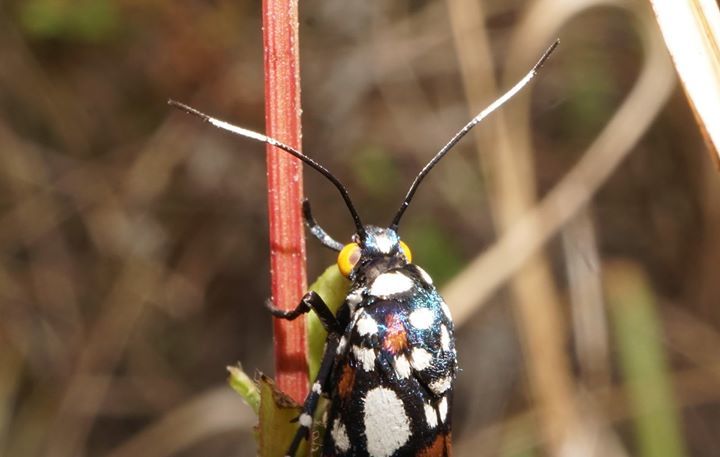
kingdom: Animalia
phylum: Arthropoda
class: Insecta
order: Lepidoptera
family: Noctuidae
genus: Cydosia
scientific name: Cydosia nobilitella
